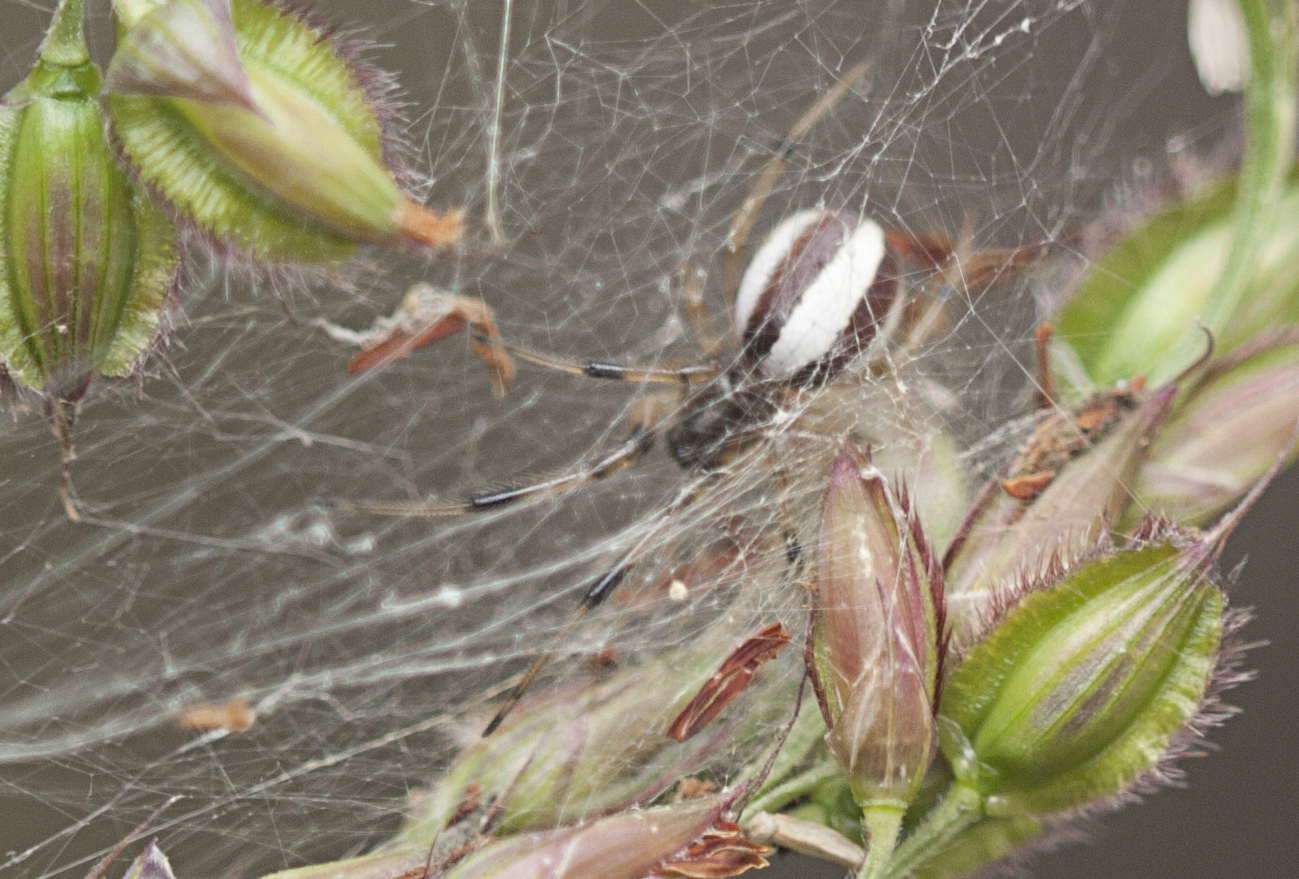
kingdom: Animalia
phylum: Arthropoda
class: Arachnida
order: Araneae
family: Araneidae
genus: Deliochus
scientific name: Deliochus idoneus
